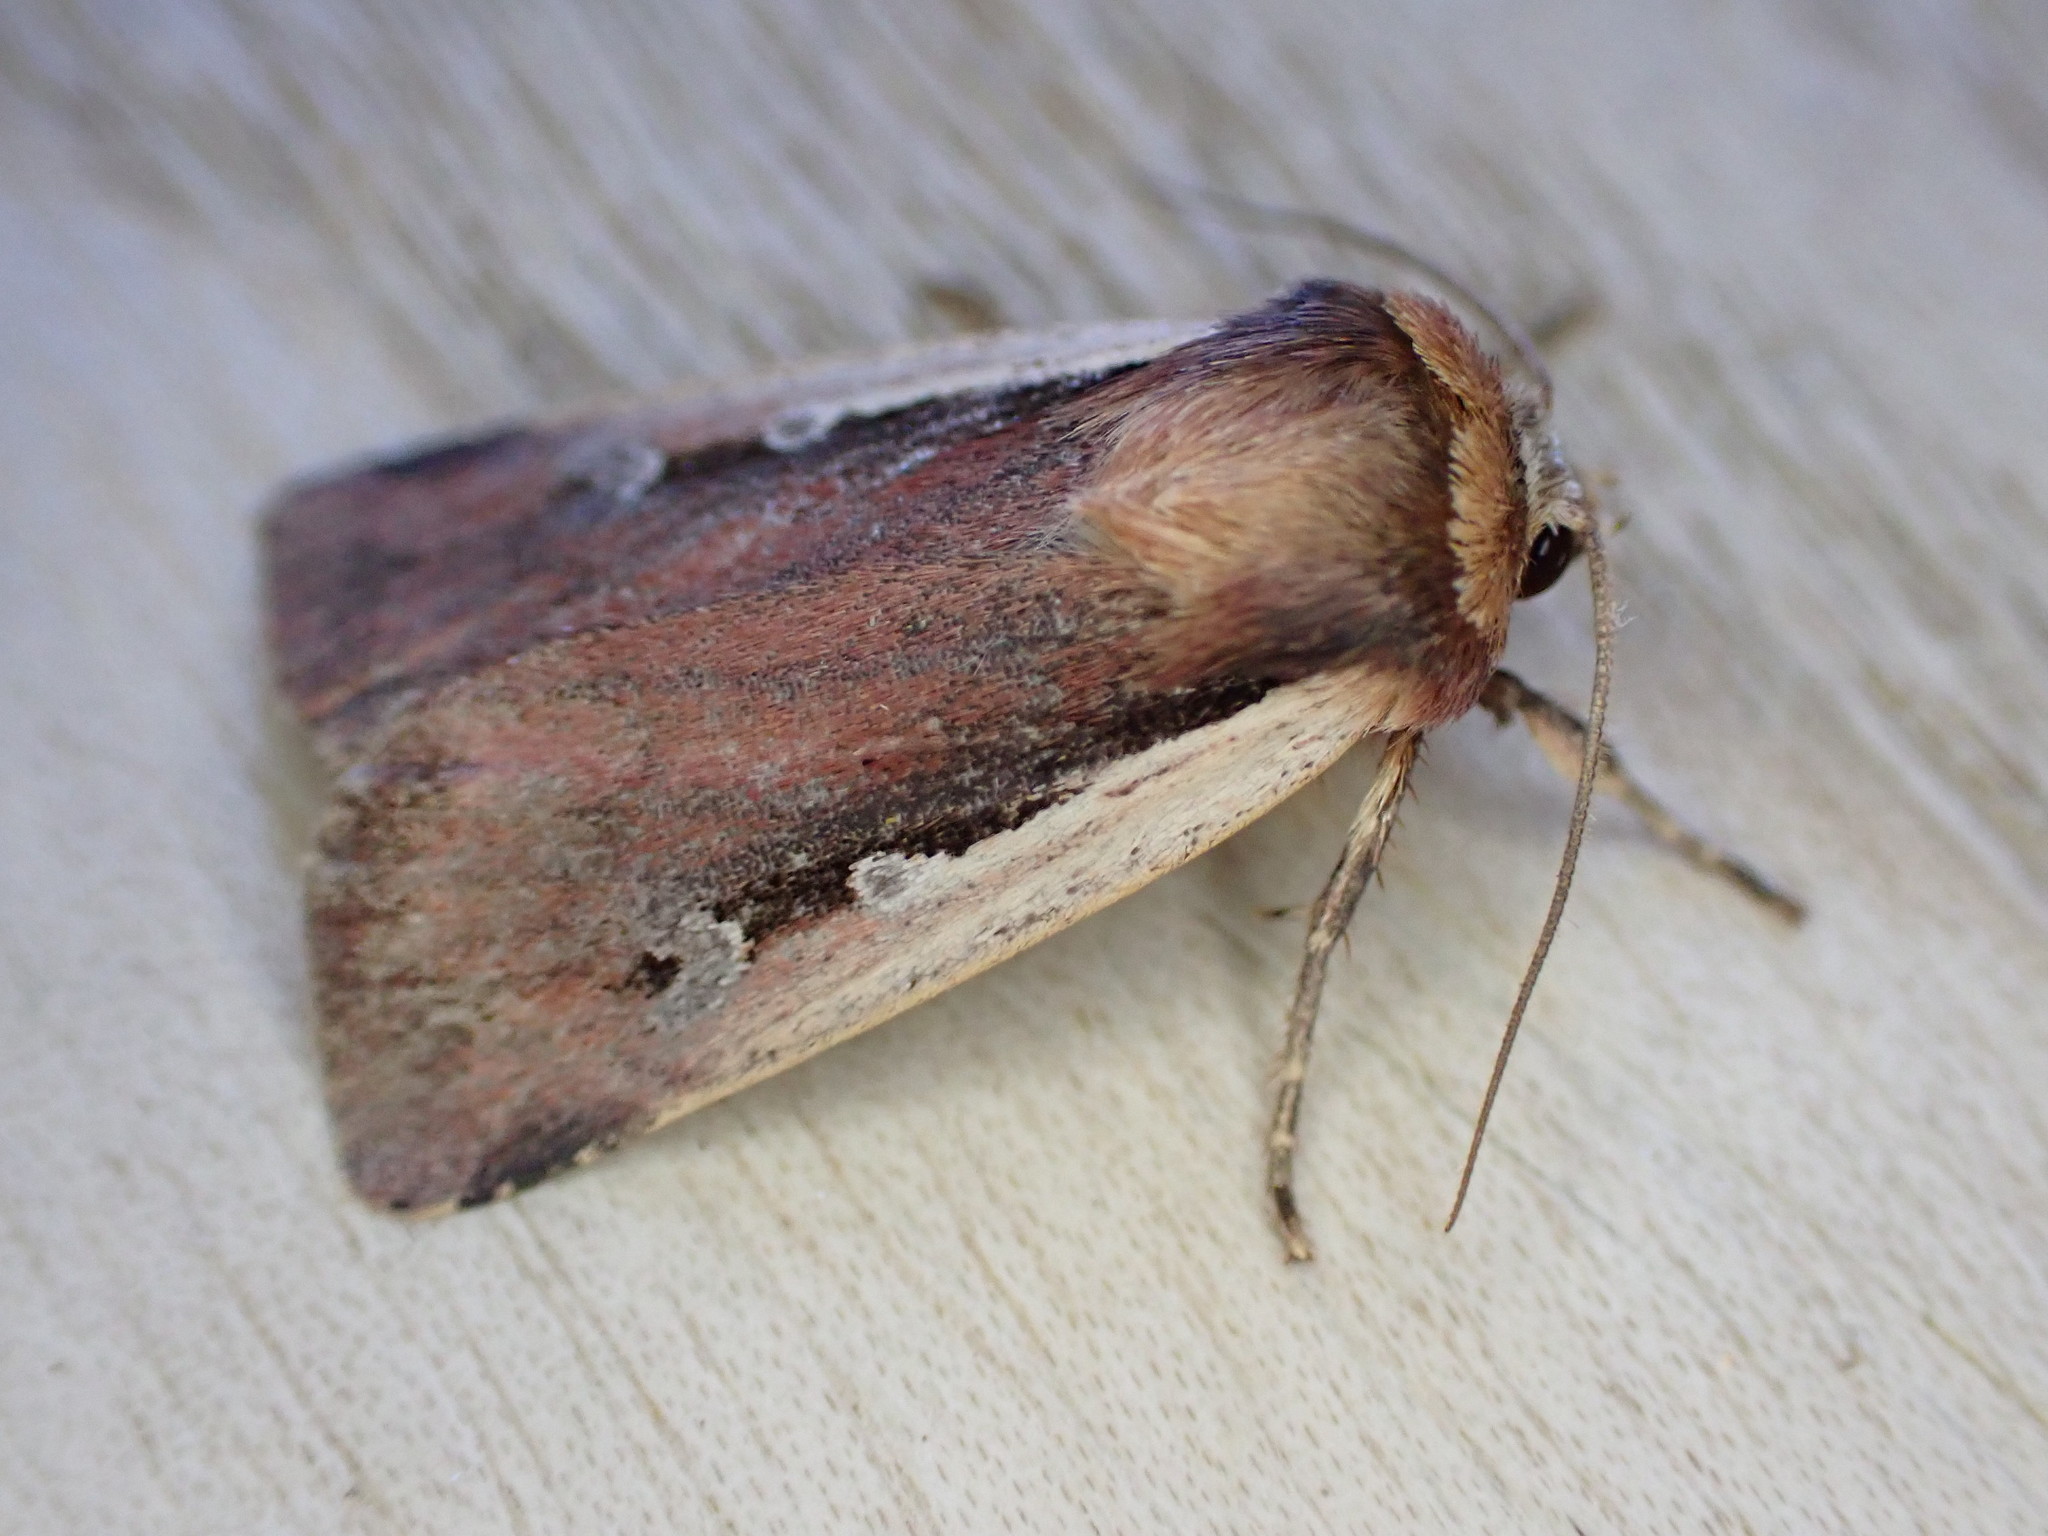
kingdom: Animalia
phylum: Arthropoda
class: Insecta
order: Lepidoptera
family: Noctuidae
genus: Ochropleura
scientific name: Ochropleura plecta
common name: Flame shoulder
